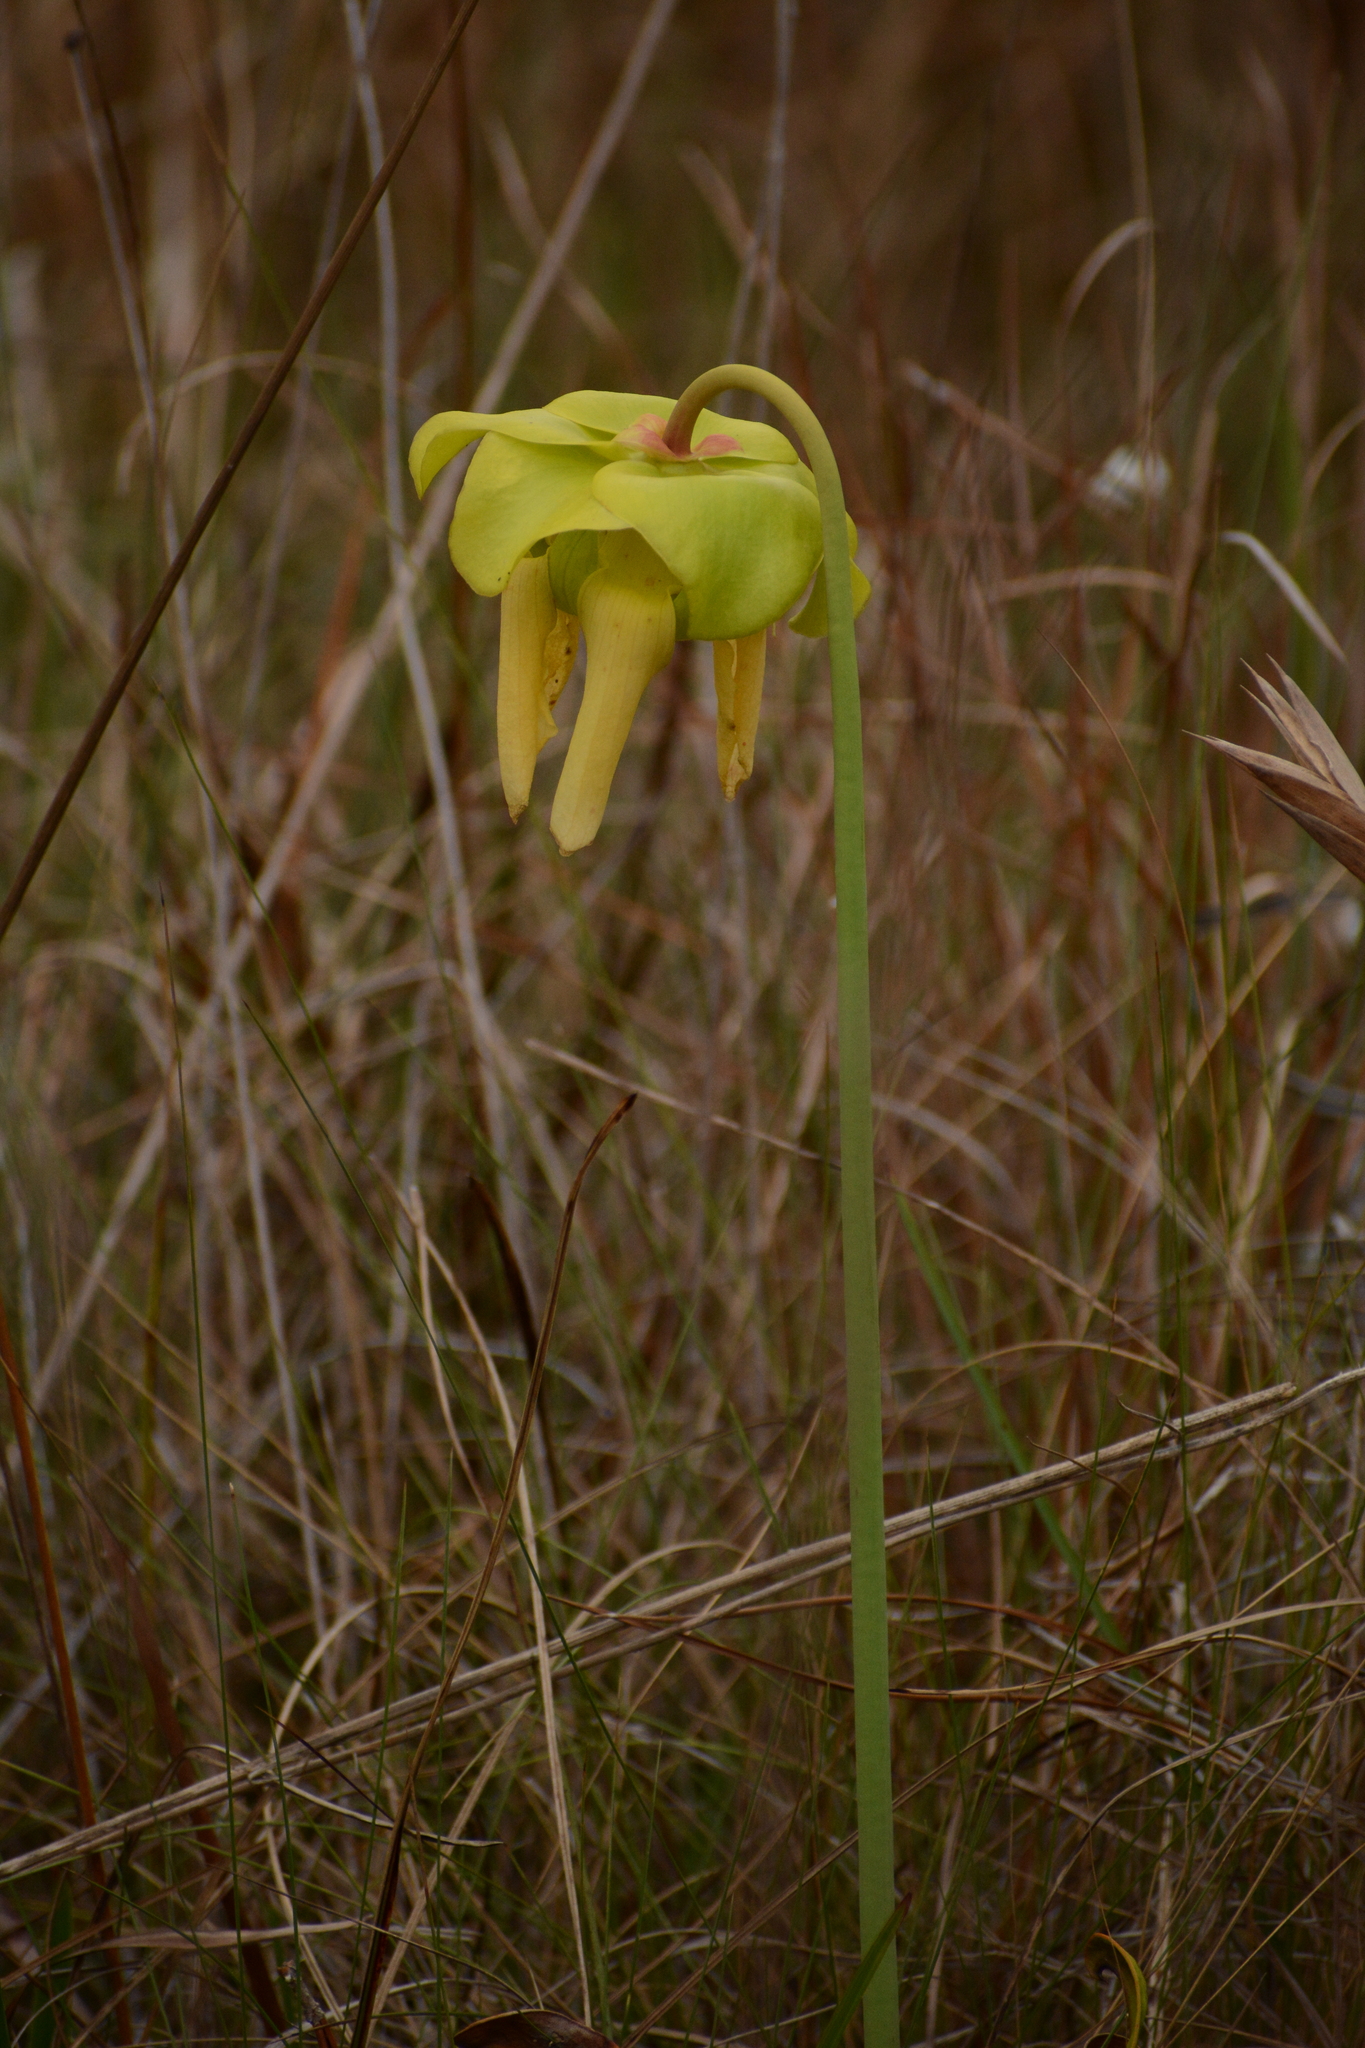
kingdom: Plantae
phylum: Tracheophyta
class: Magnoliopsida
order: Ericales
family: Sarraceniaceae
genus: Sarracenia
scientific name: Sarracenia flava
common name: Trumpets
